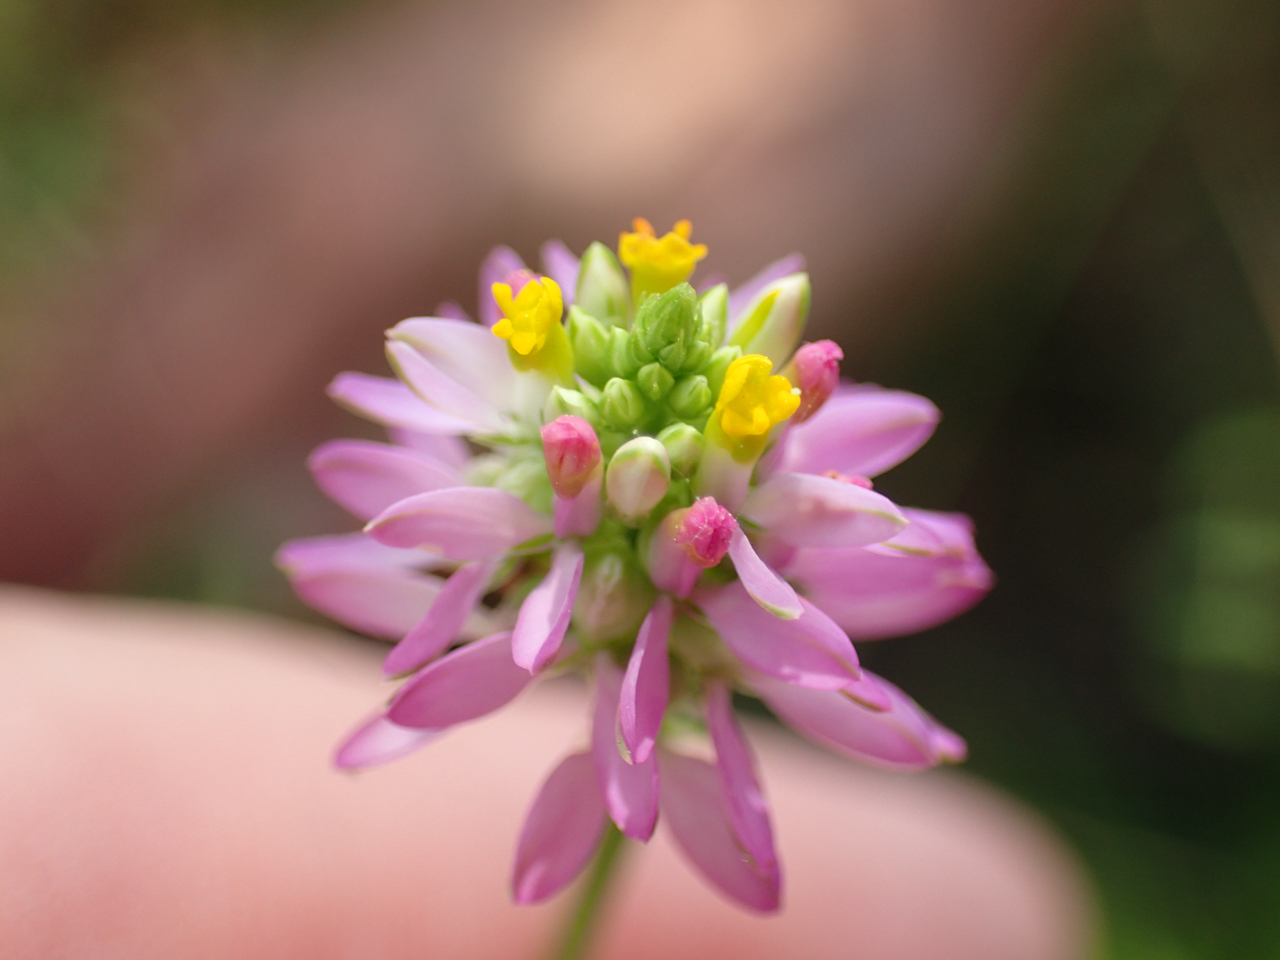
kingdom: Plantae
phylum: Tracheophyta
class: Magnoliopsida
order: Fabales
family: Polygalaceae
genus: Polygala
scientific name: Polygala curtissii
